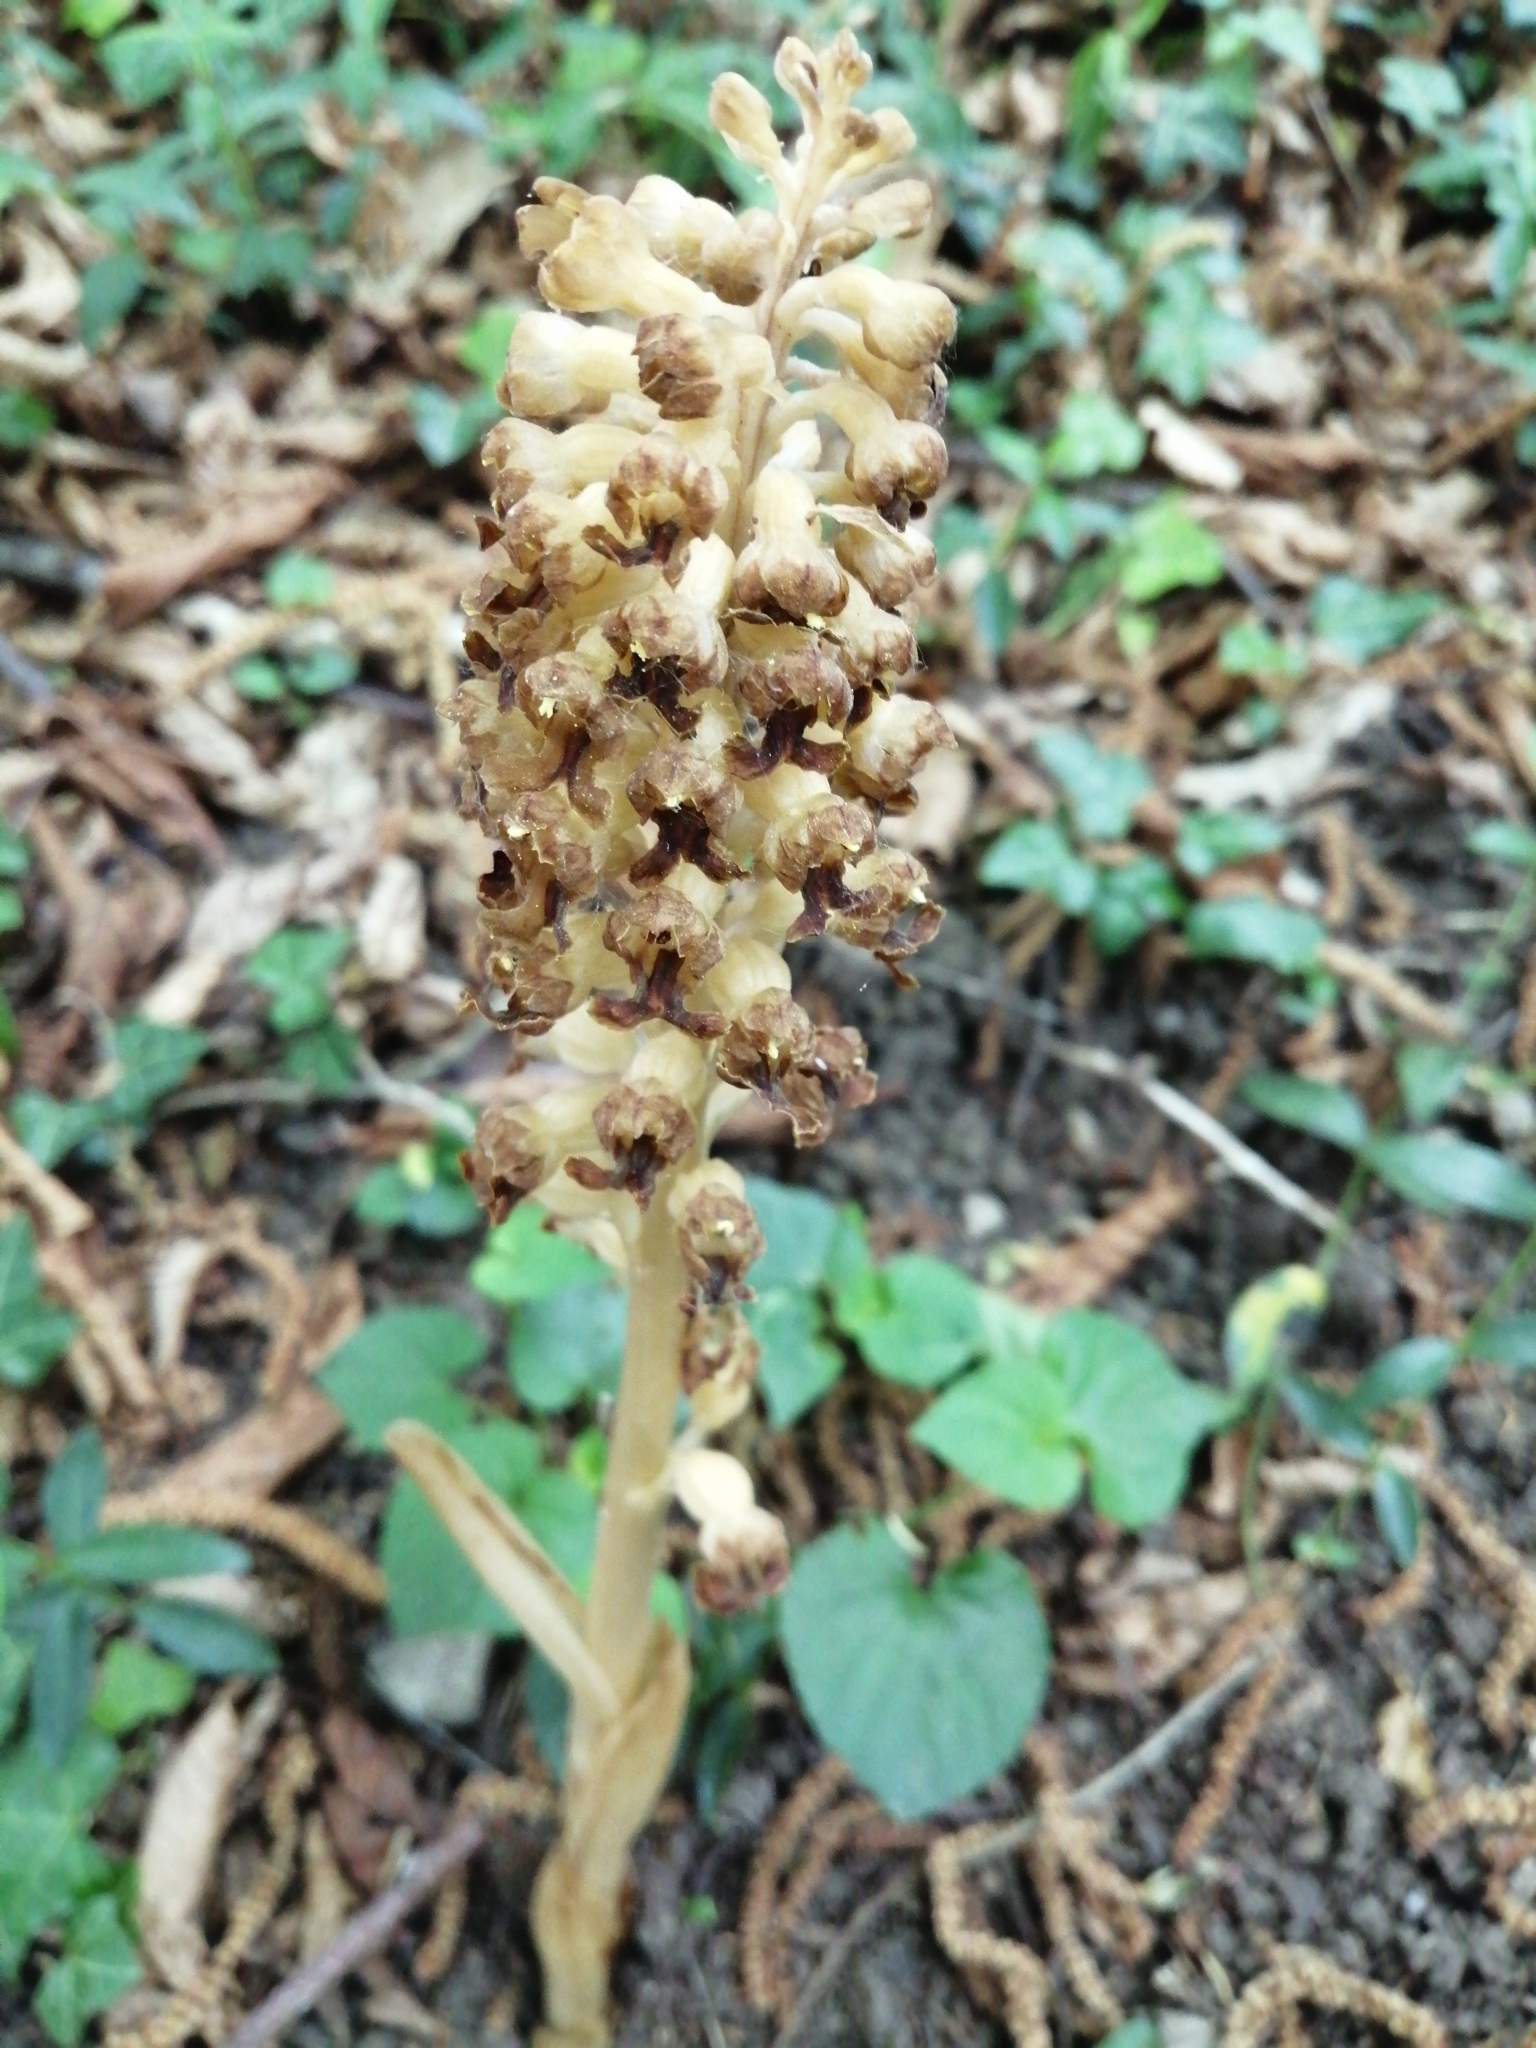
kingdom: Plantae
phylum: Tracheophyta
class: Liliopsida
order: Asparagales
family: Orchidaceae
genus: Neottia
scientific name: Neottia nidus-avis
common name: Bird's-nest orchid
